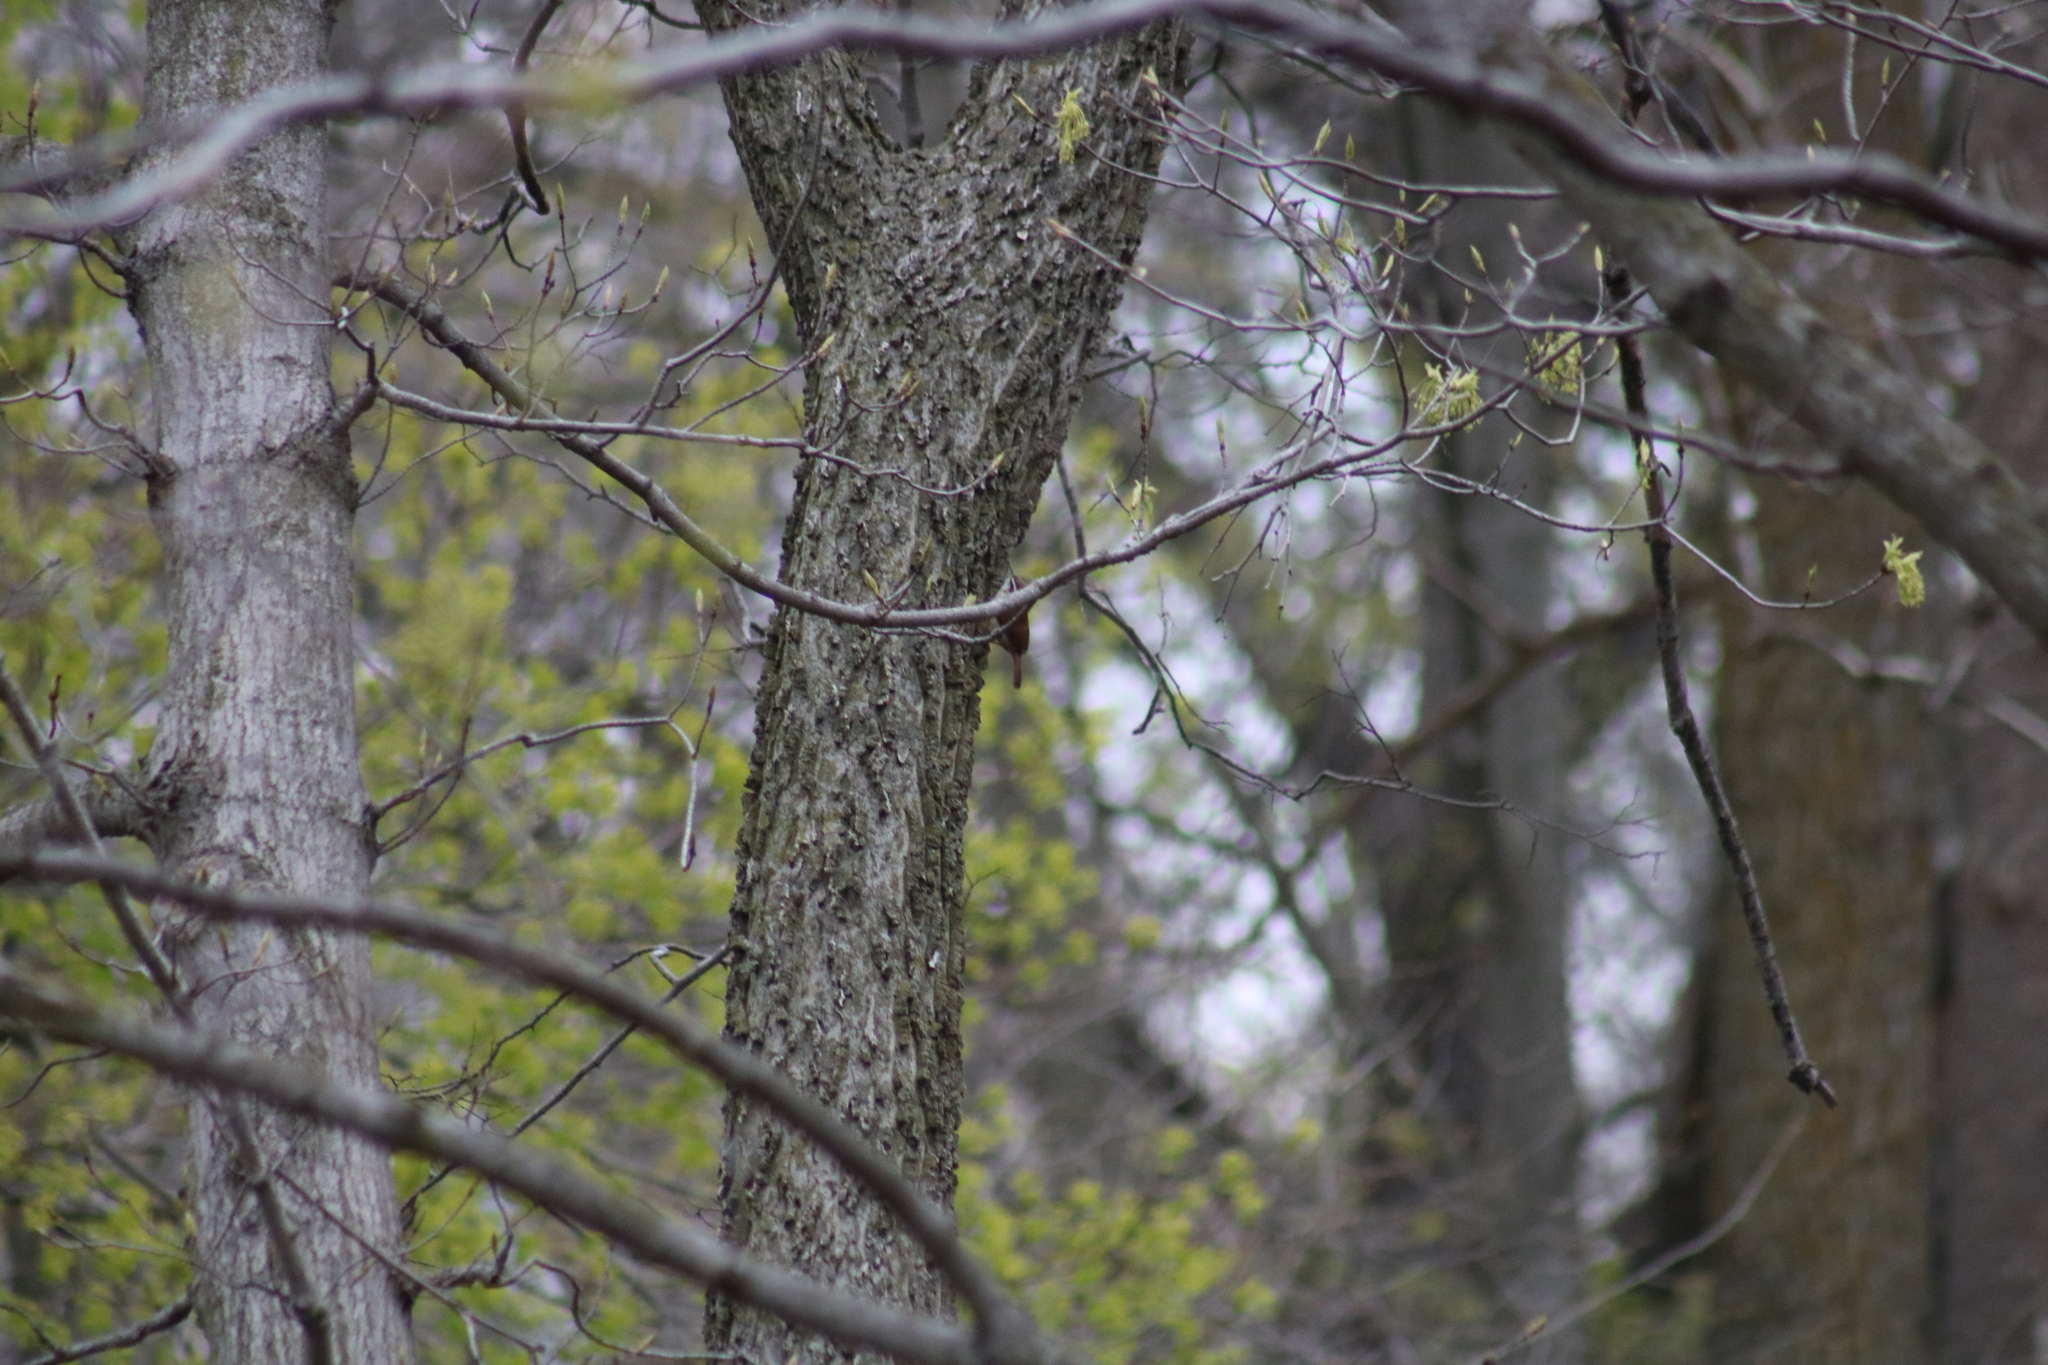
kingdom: Animalia
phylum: Chordata
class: Aves
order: Passeriformes
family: Troglodytidae
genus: Thryothorus
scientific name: Thryothorus ludovicianus
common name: Carolina wren
